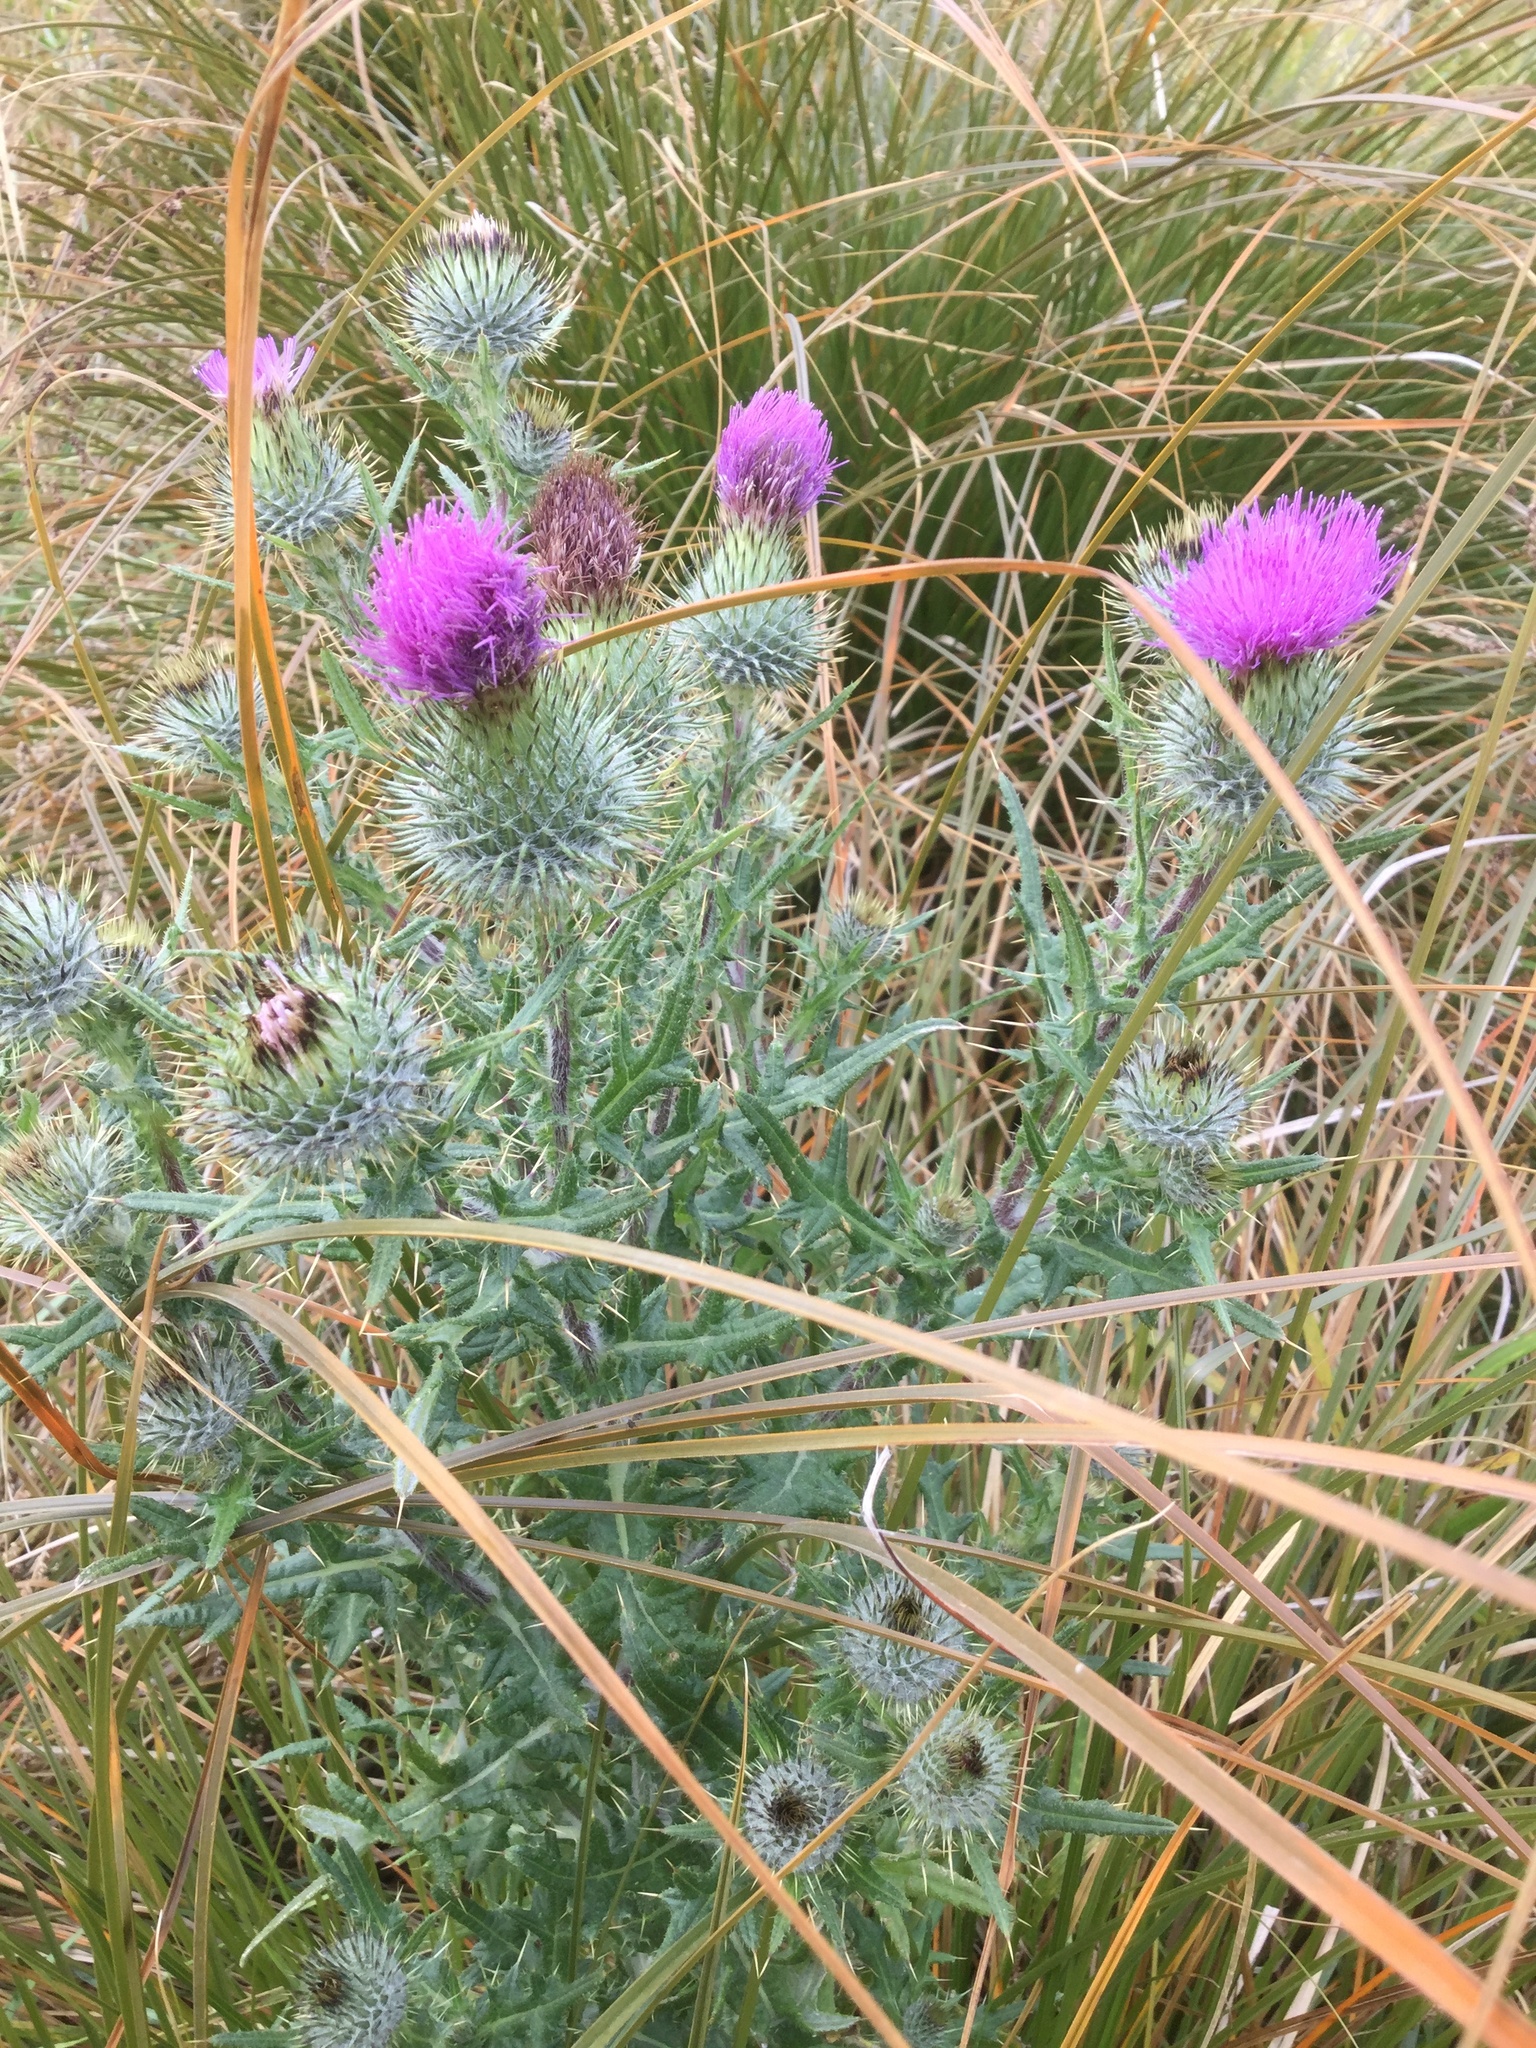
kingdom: Plantae
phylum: Tracheophyta
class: Magnoliopsida
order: Asterales
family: Asteraceae
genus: Cirsium
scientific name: Cirsium vulgare
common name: Bull thistle
